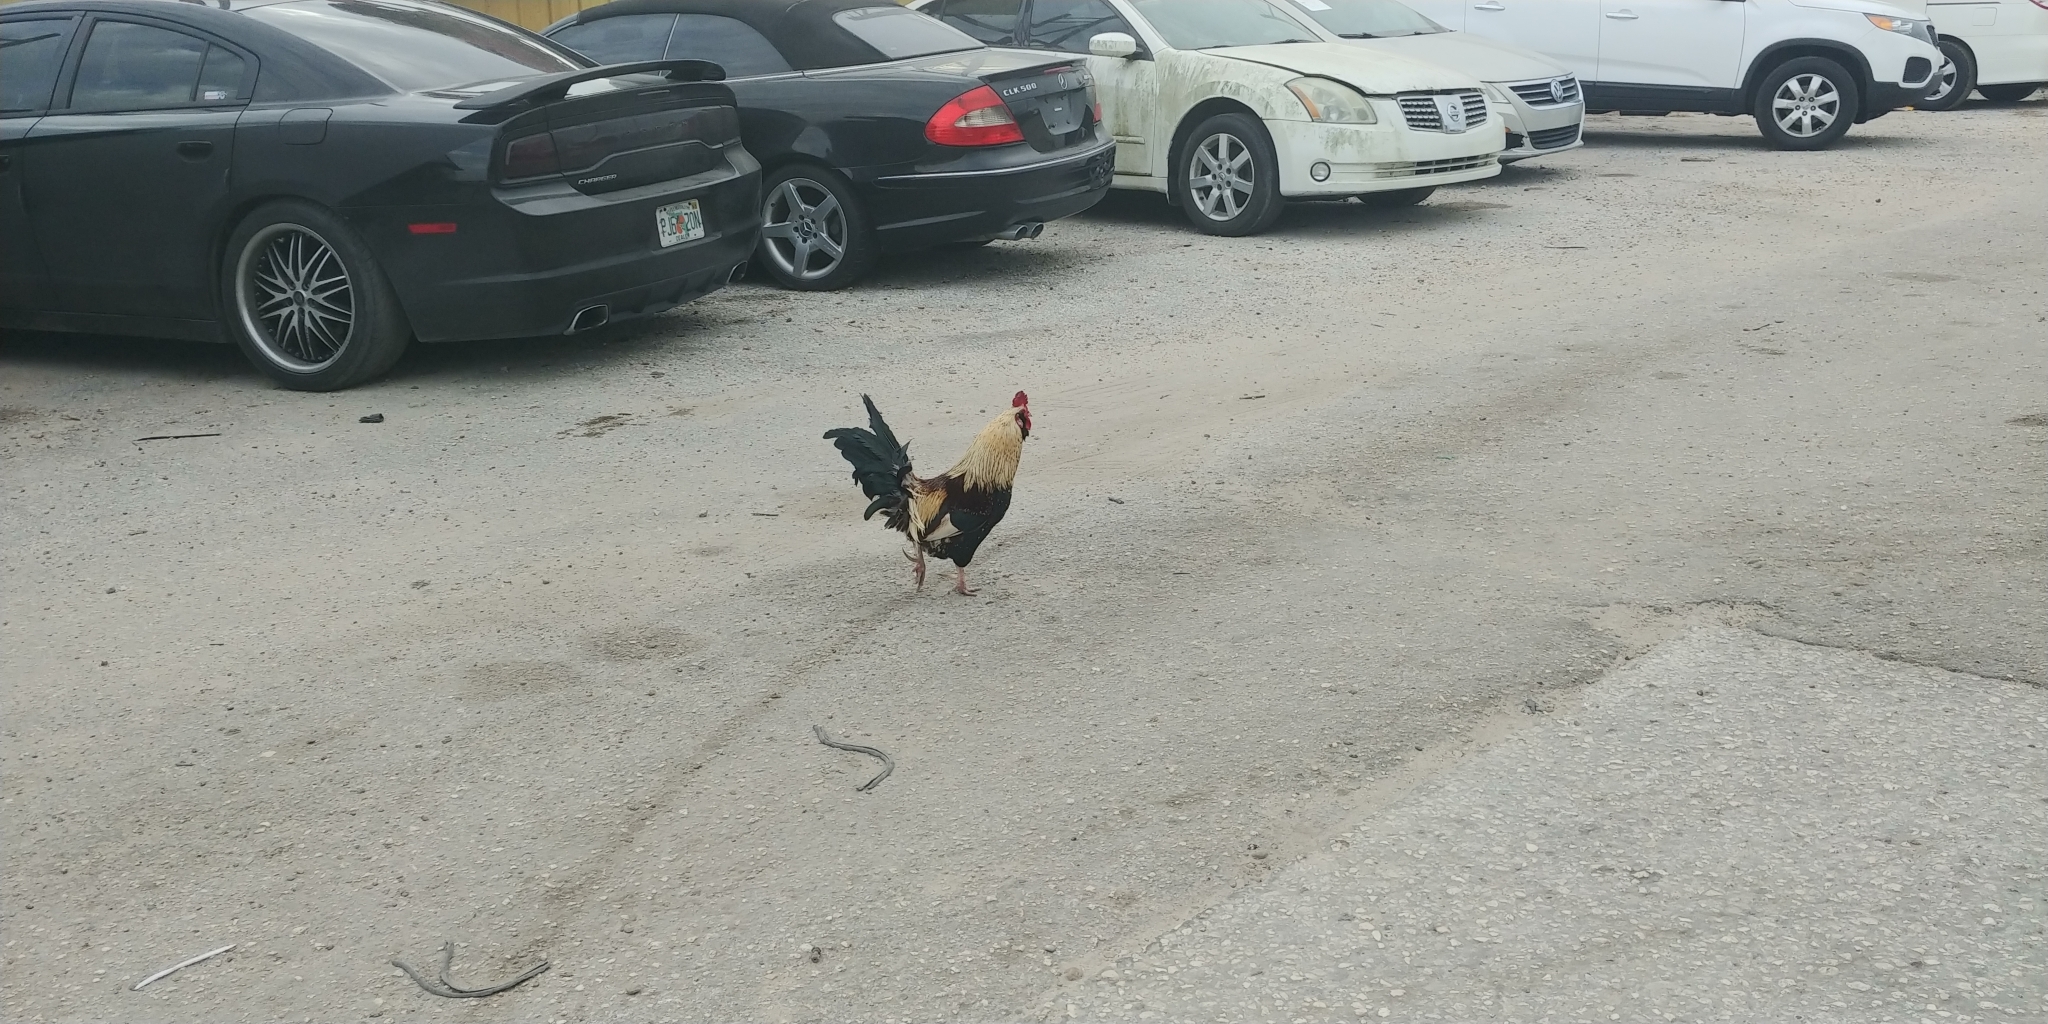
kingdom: Animalia
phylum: Chordata
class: Aves
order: Galliformes
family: Phasianidae
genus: Gallus
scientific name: Gallus gallus
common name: Red junglefowl
